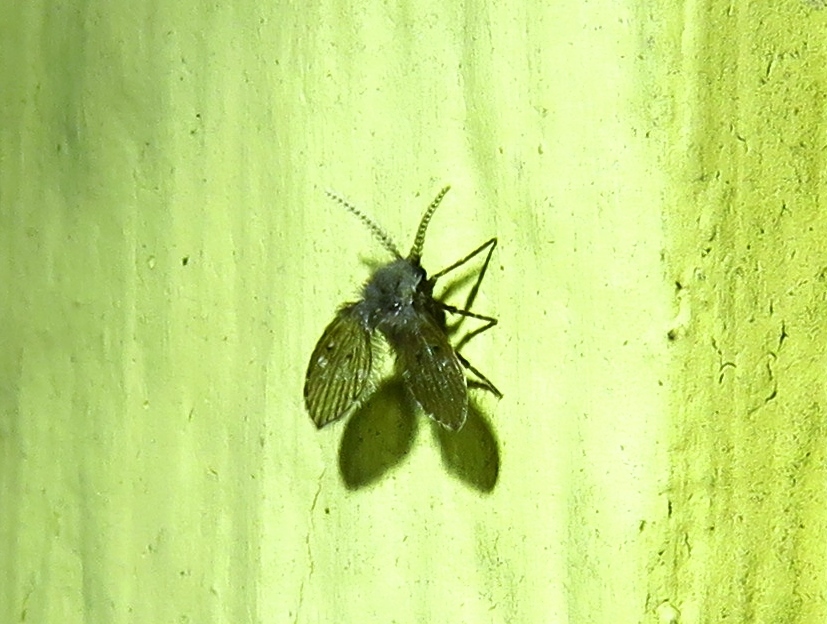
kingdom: Animalia
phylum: Arthropoda
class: Insecta
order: Diptera
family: Psychodidae
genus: Clogmia
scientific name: Clogmia albipunctatus
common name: White-spotted moth fly
